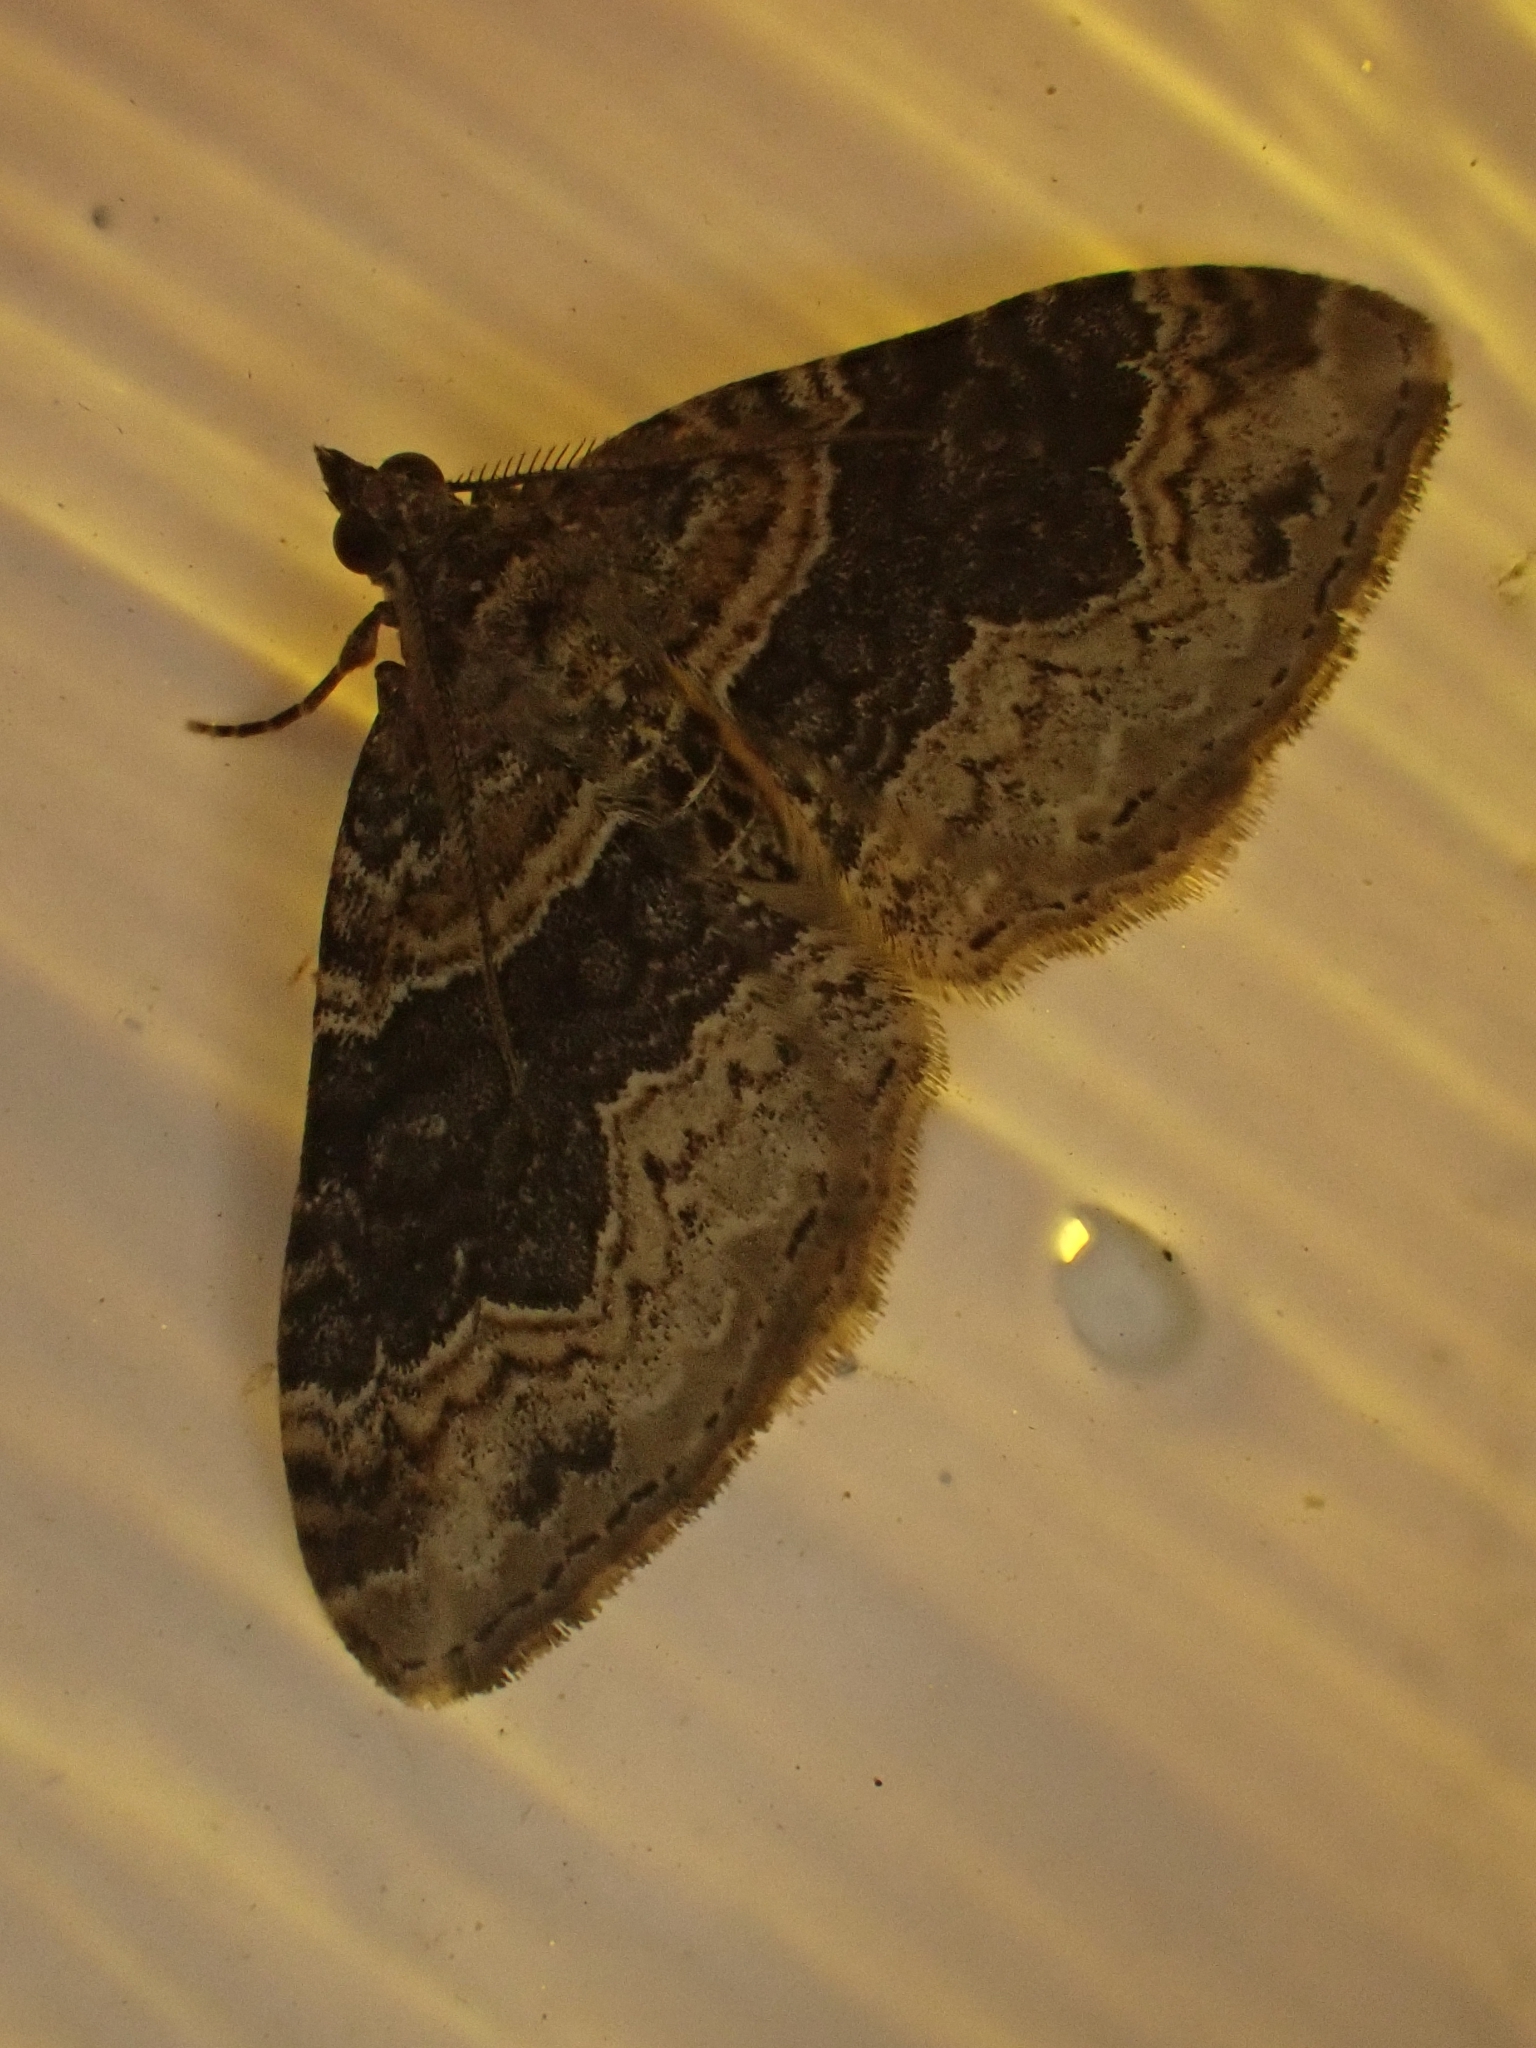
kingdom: Animalia
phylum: Arthropoda
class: Insecta
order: Lepidoptera
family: Geometridae
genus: Xanthorhoe
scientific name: Xanthorhoe ferrugata
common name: Dark-barred twin-spot carpet
